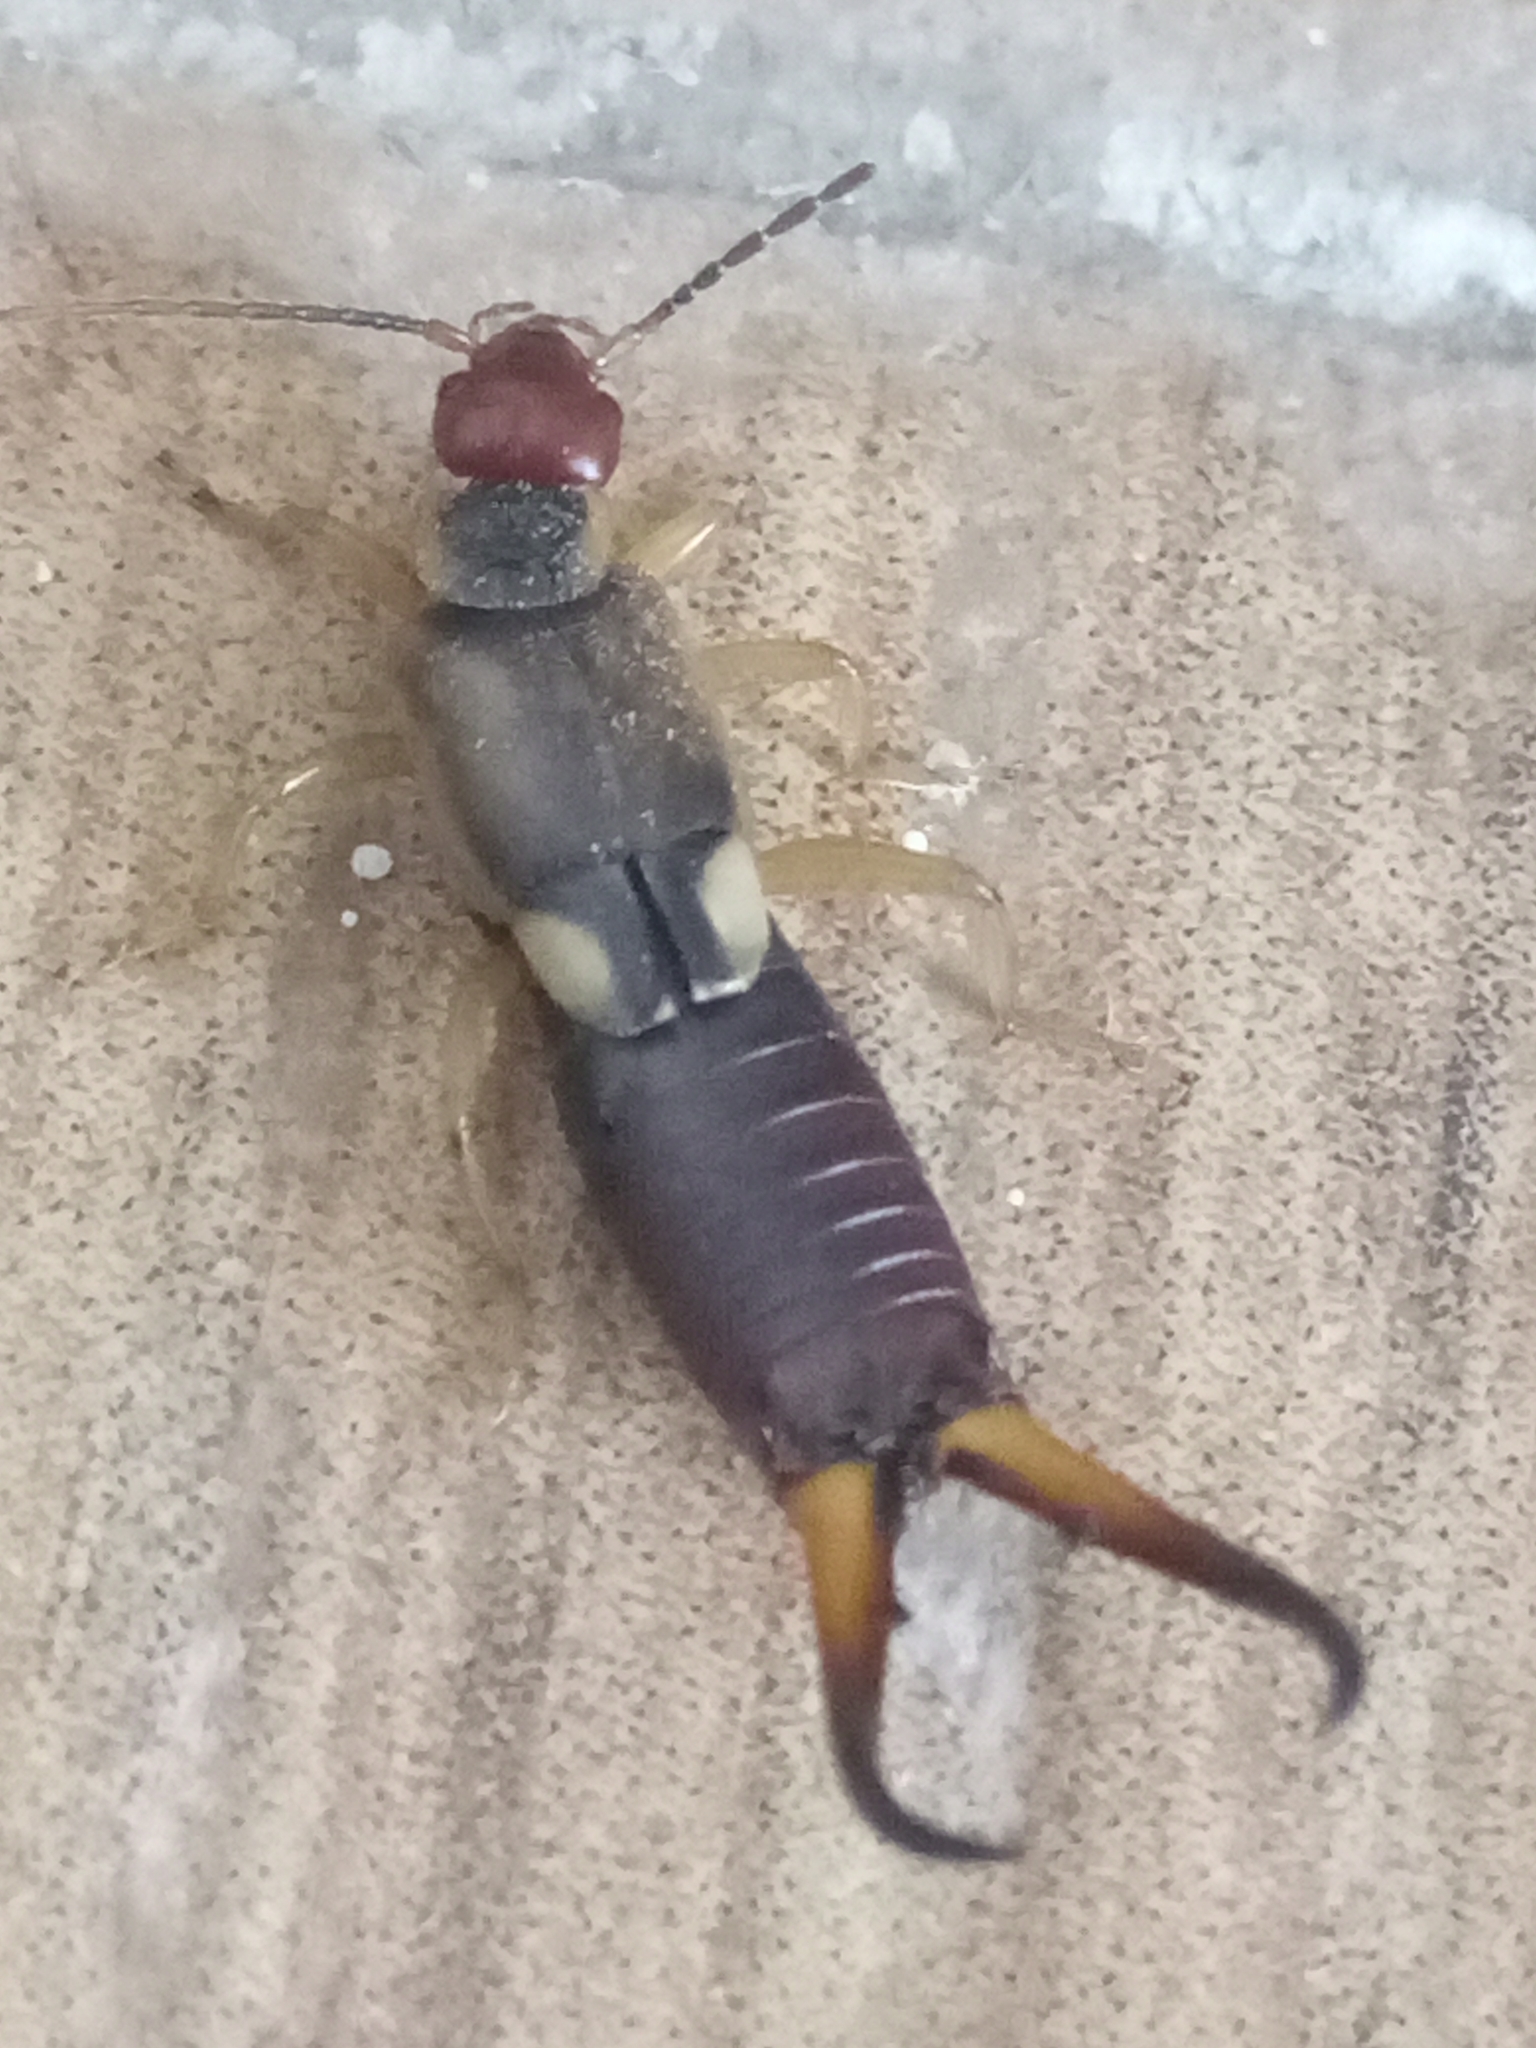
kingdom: Animalia
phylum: Arthropoda
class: Insecta
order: Dermaptera
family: Forficulidae
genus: Forficula
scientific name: Forficula
